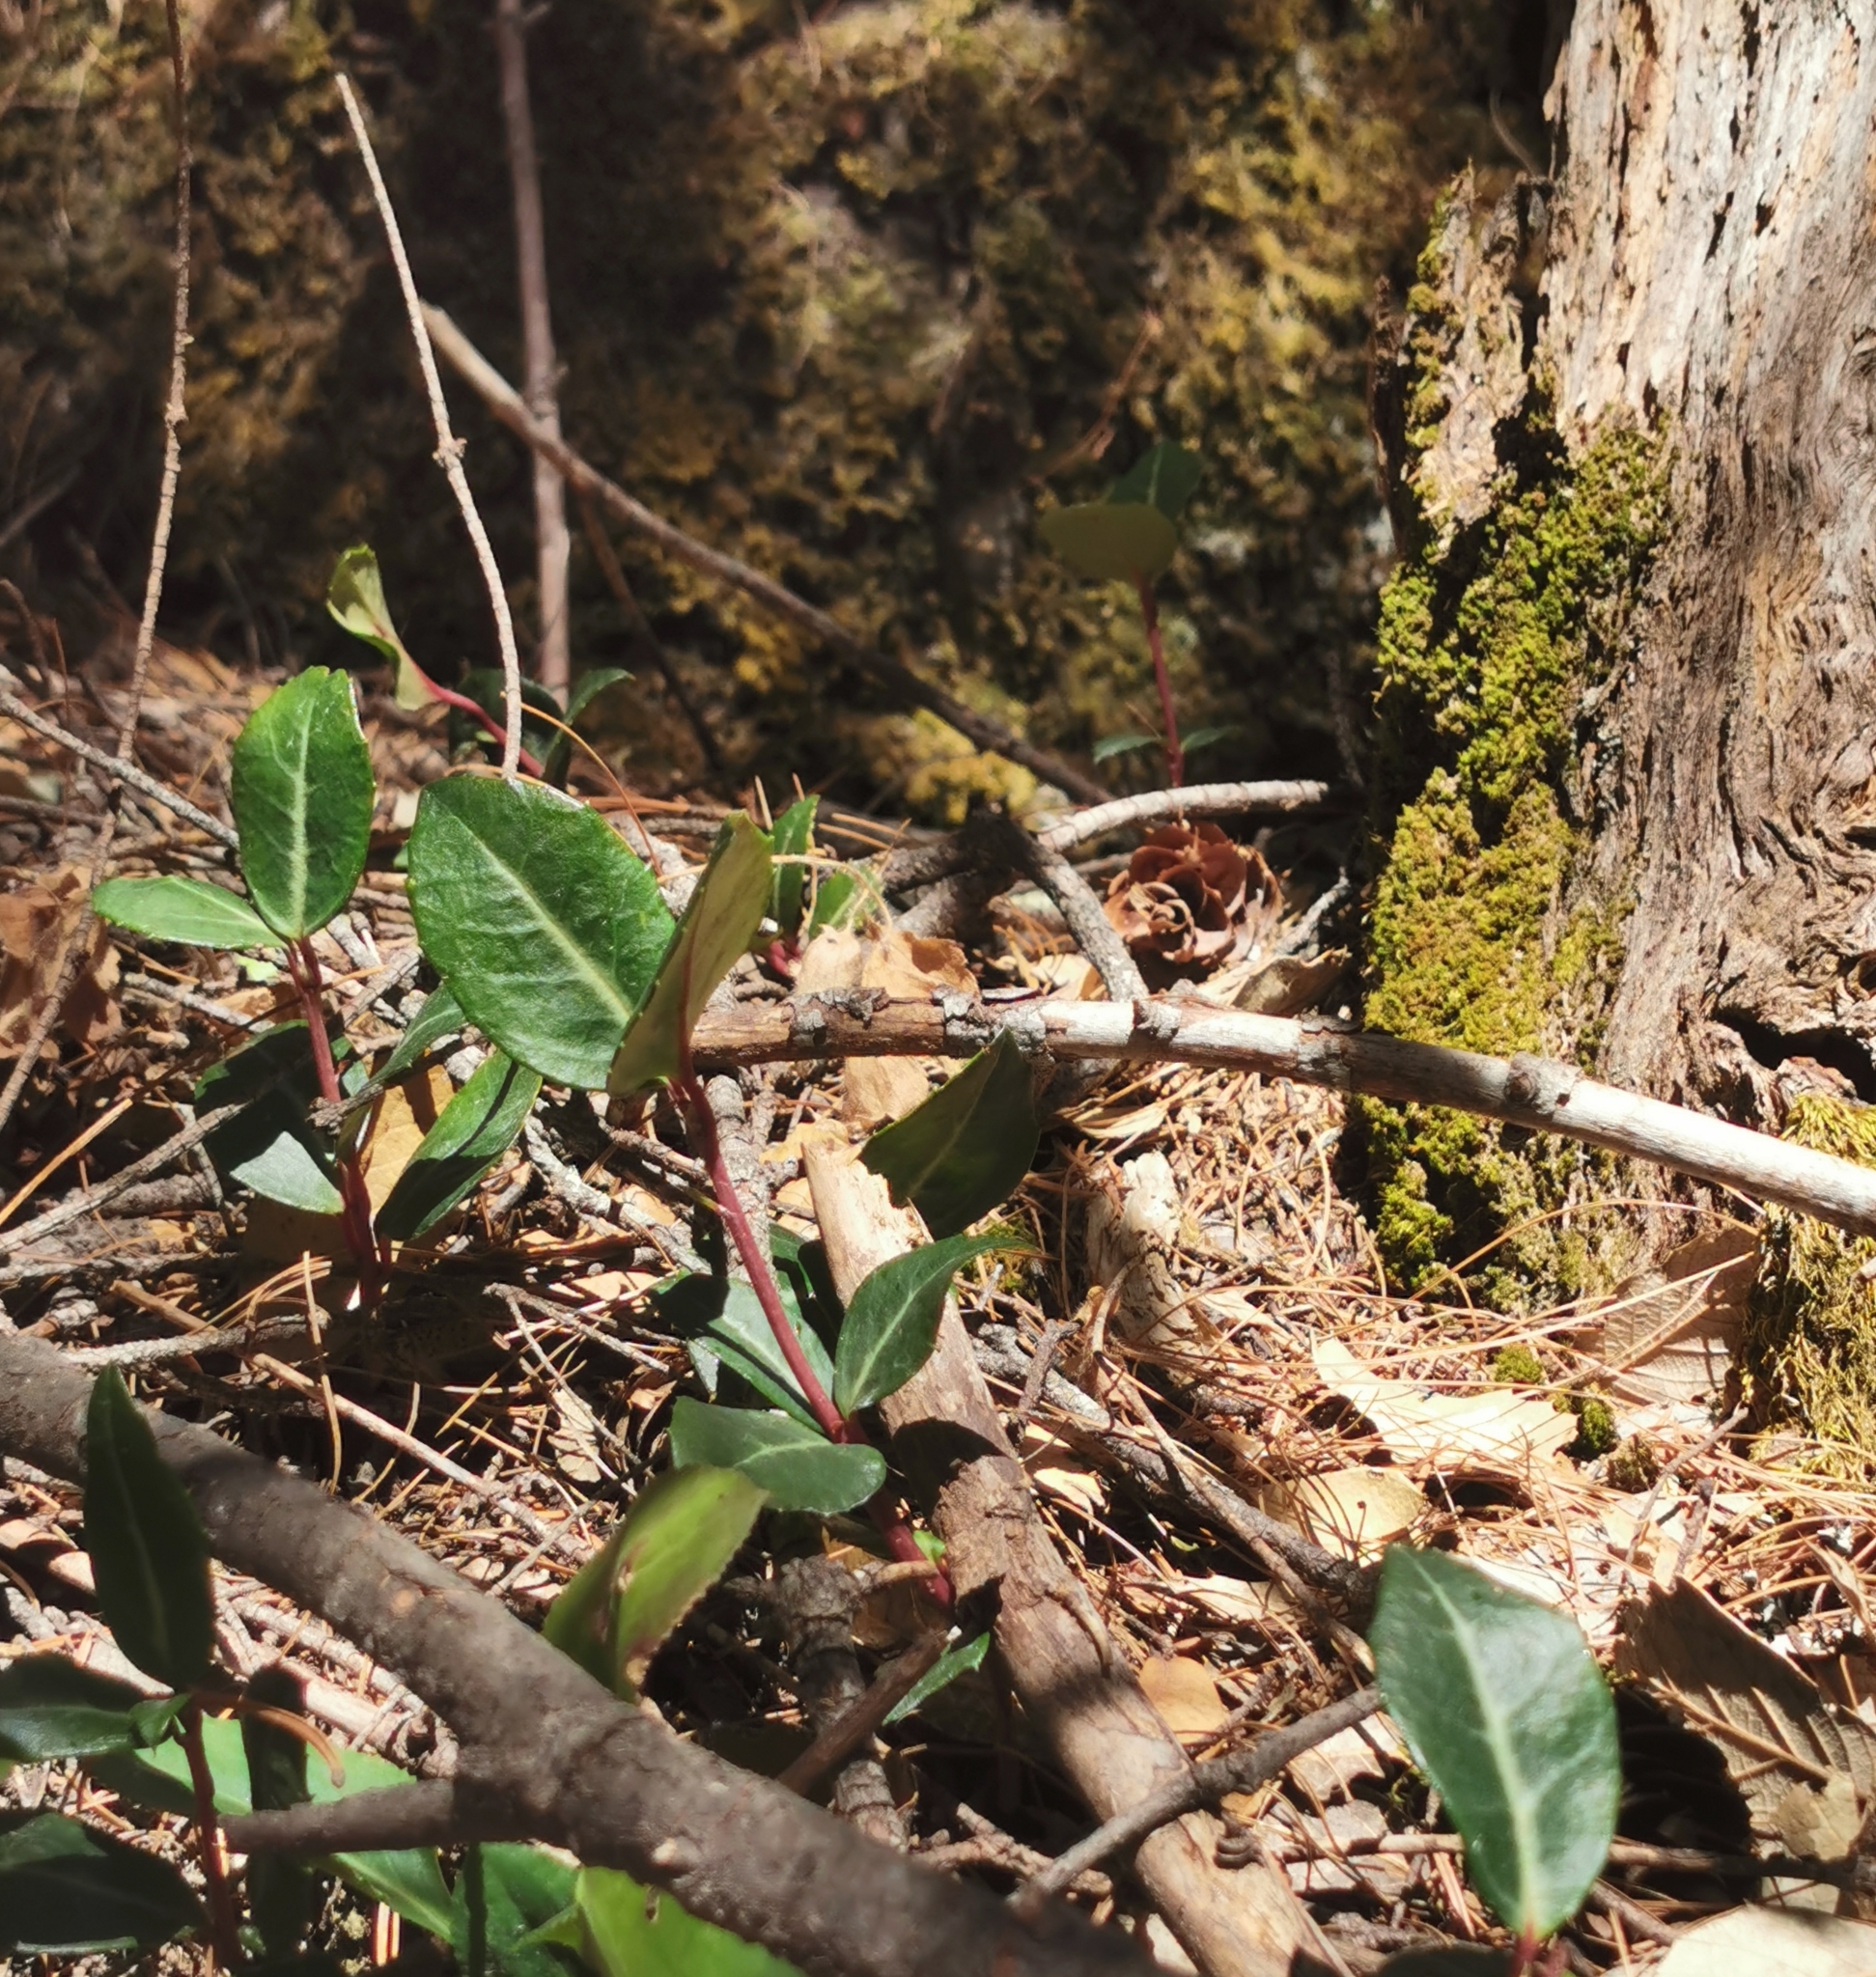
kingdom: Plantae
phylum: Tracheophyta
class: Magnoliopsida
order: Ericales
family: Ericaceae
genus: Chimaphila
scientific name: Chimaphila maculata
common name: Spotted pipsissewa
